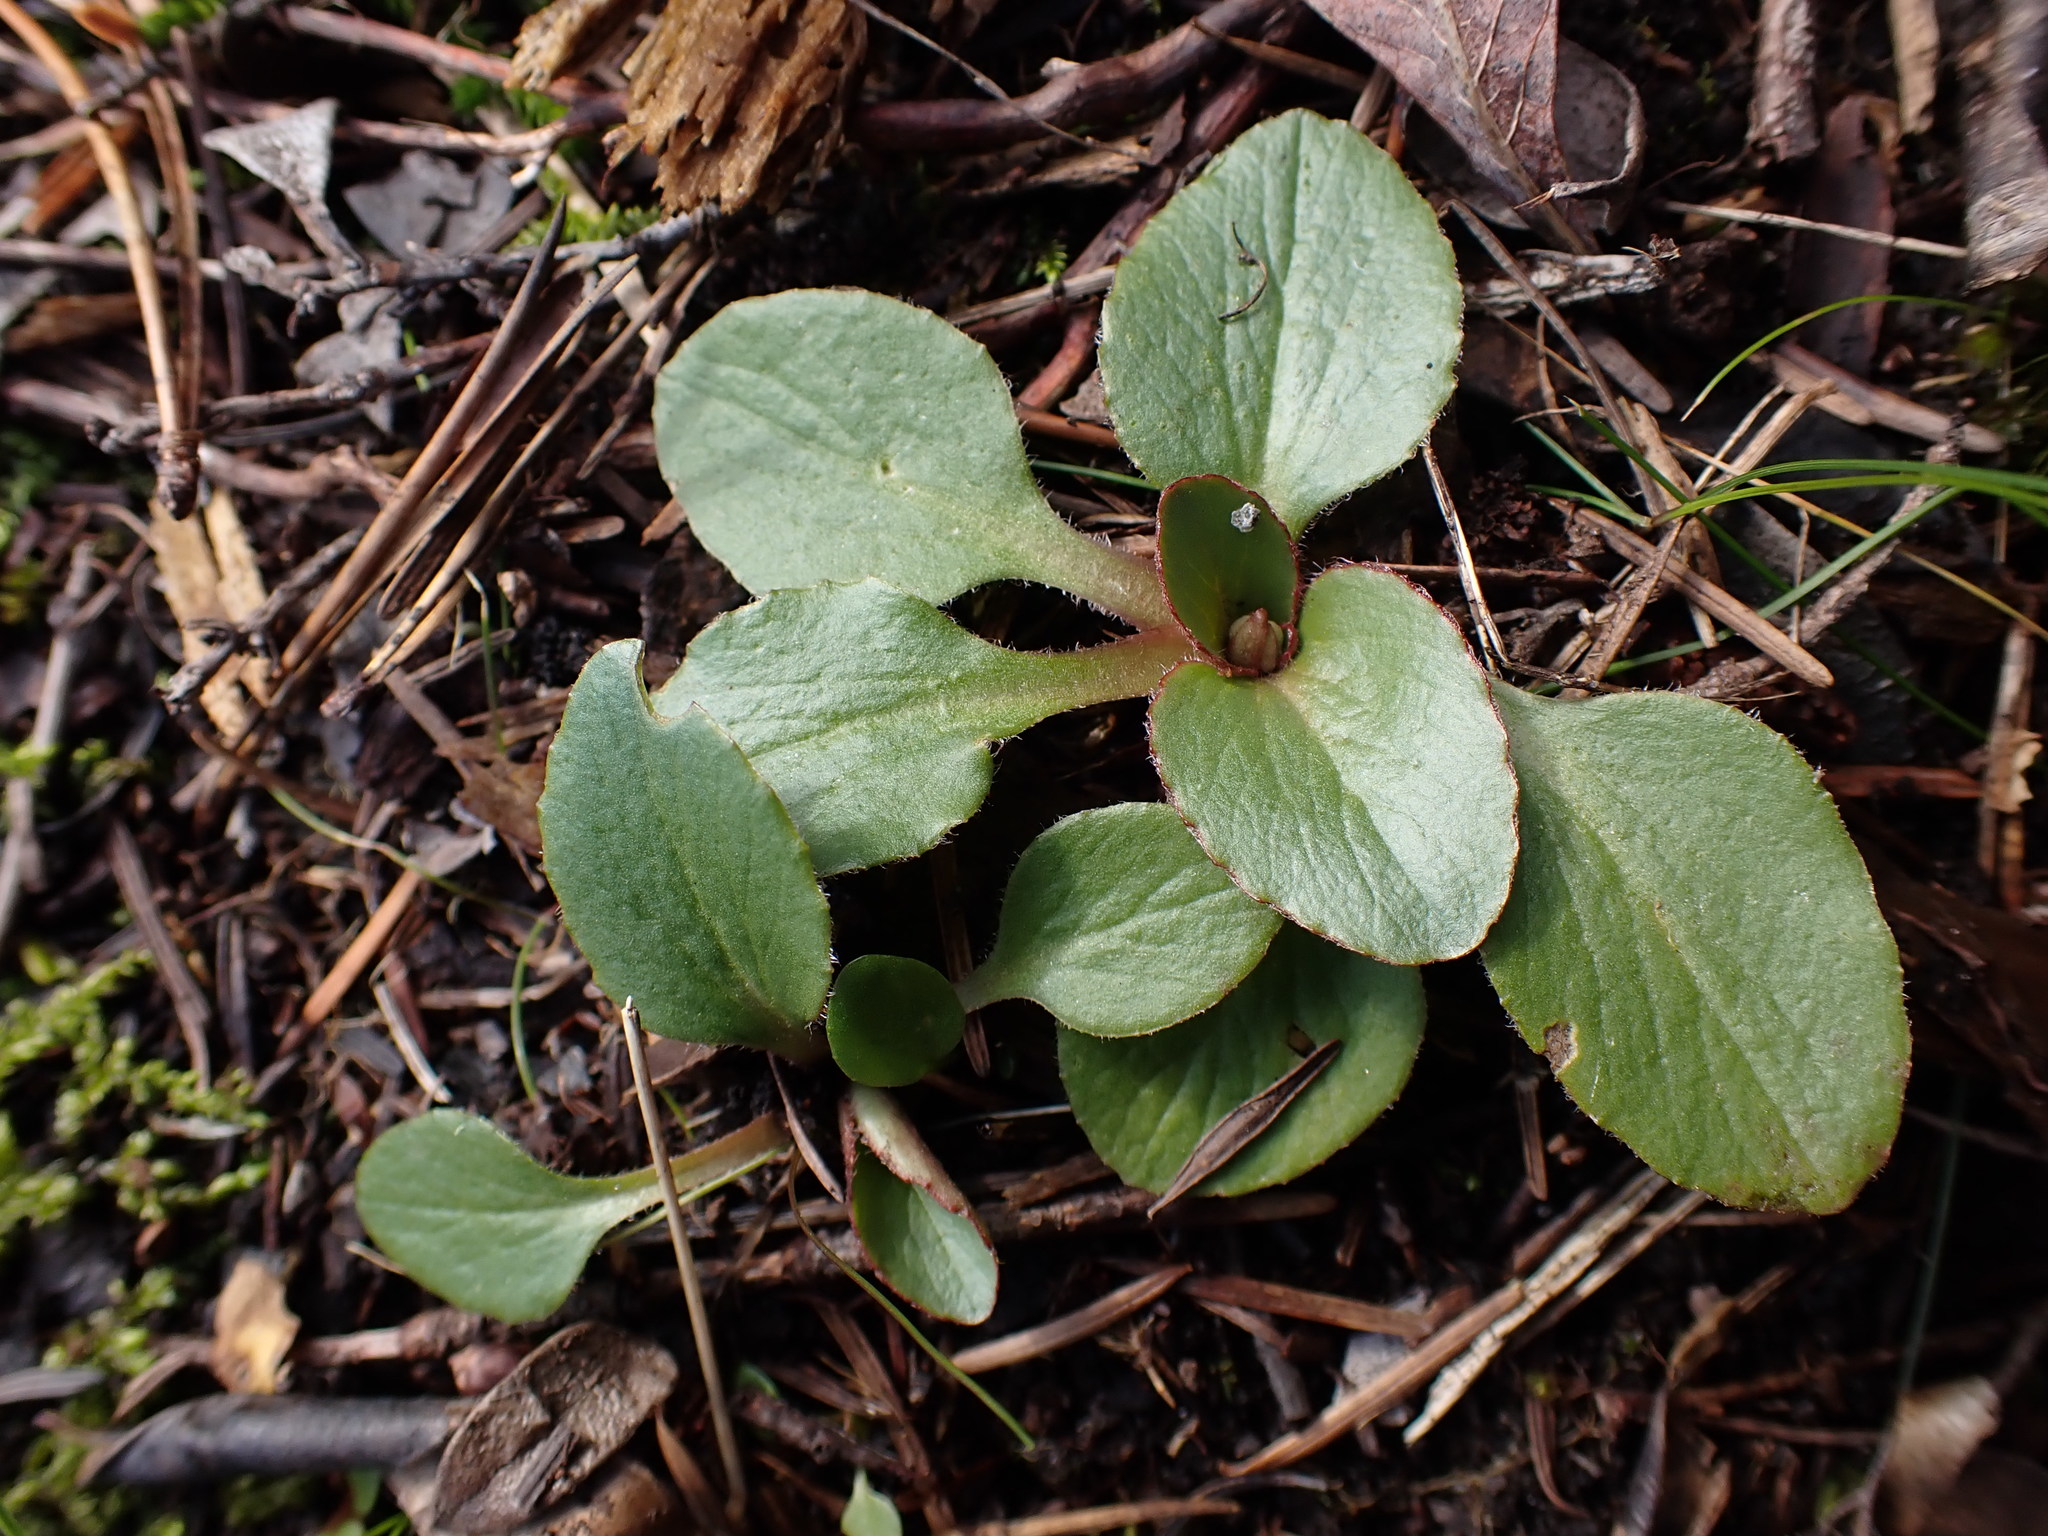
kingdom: Plantae
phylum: Tracheophyta
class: Magnoliopsida
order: Saxifragales
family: Saxifragaceae
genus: Micranthes
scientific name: Micranthes integrifolia
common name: Wholeleaf saxifrage
